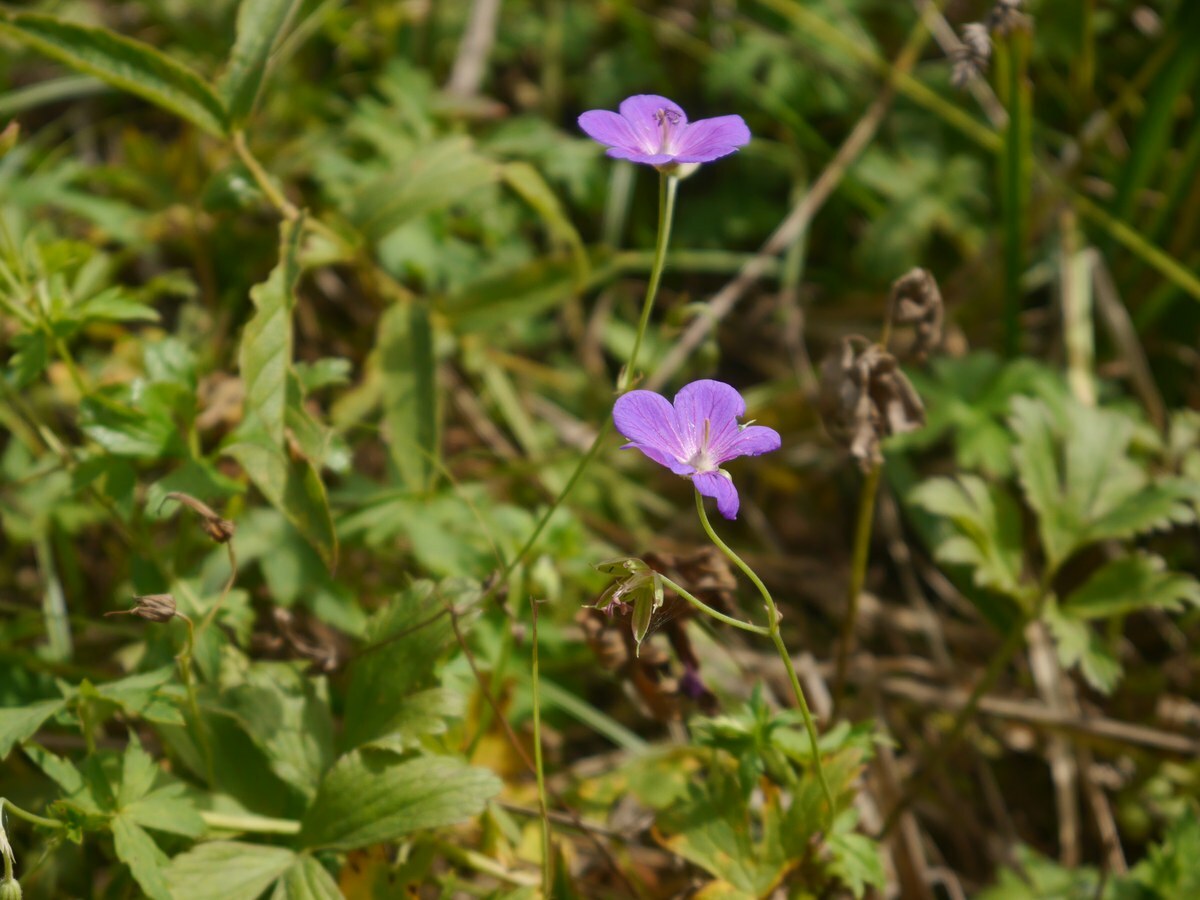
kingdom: Plantae
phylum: Tracheophyta
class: Magnoliopsida
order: Geraniales
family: Geraniaceae
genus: Geranium
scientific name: Geranium collinum
